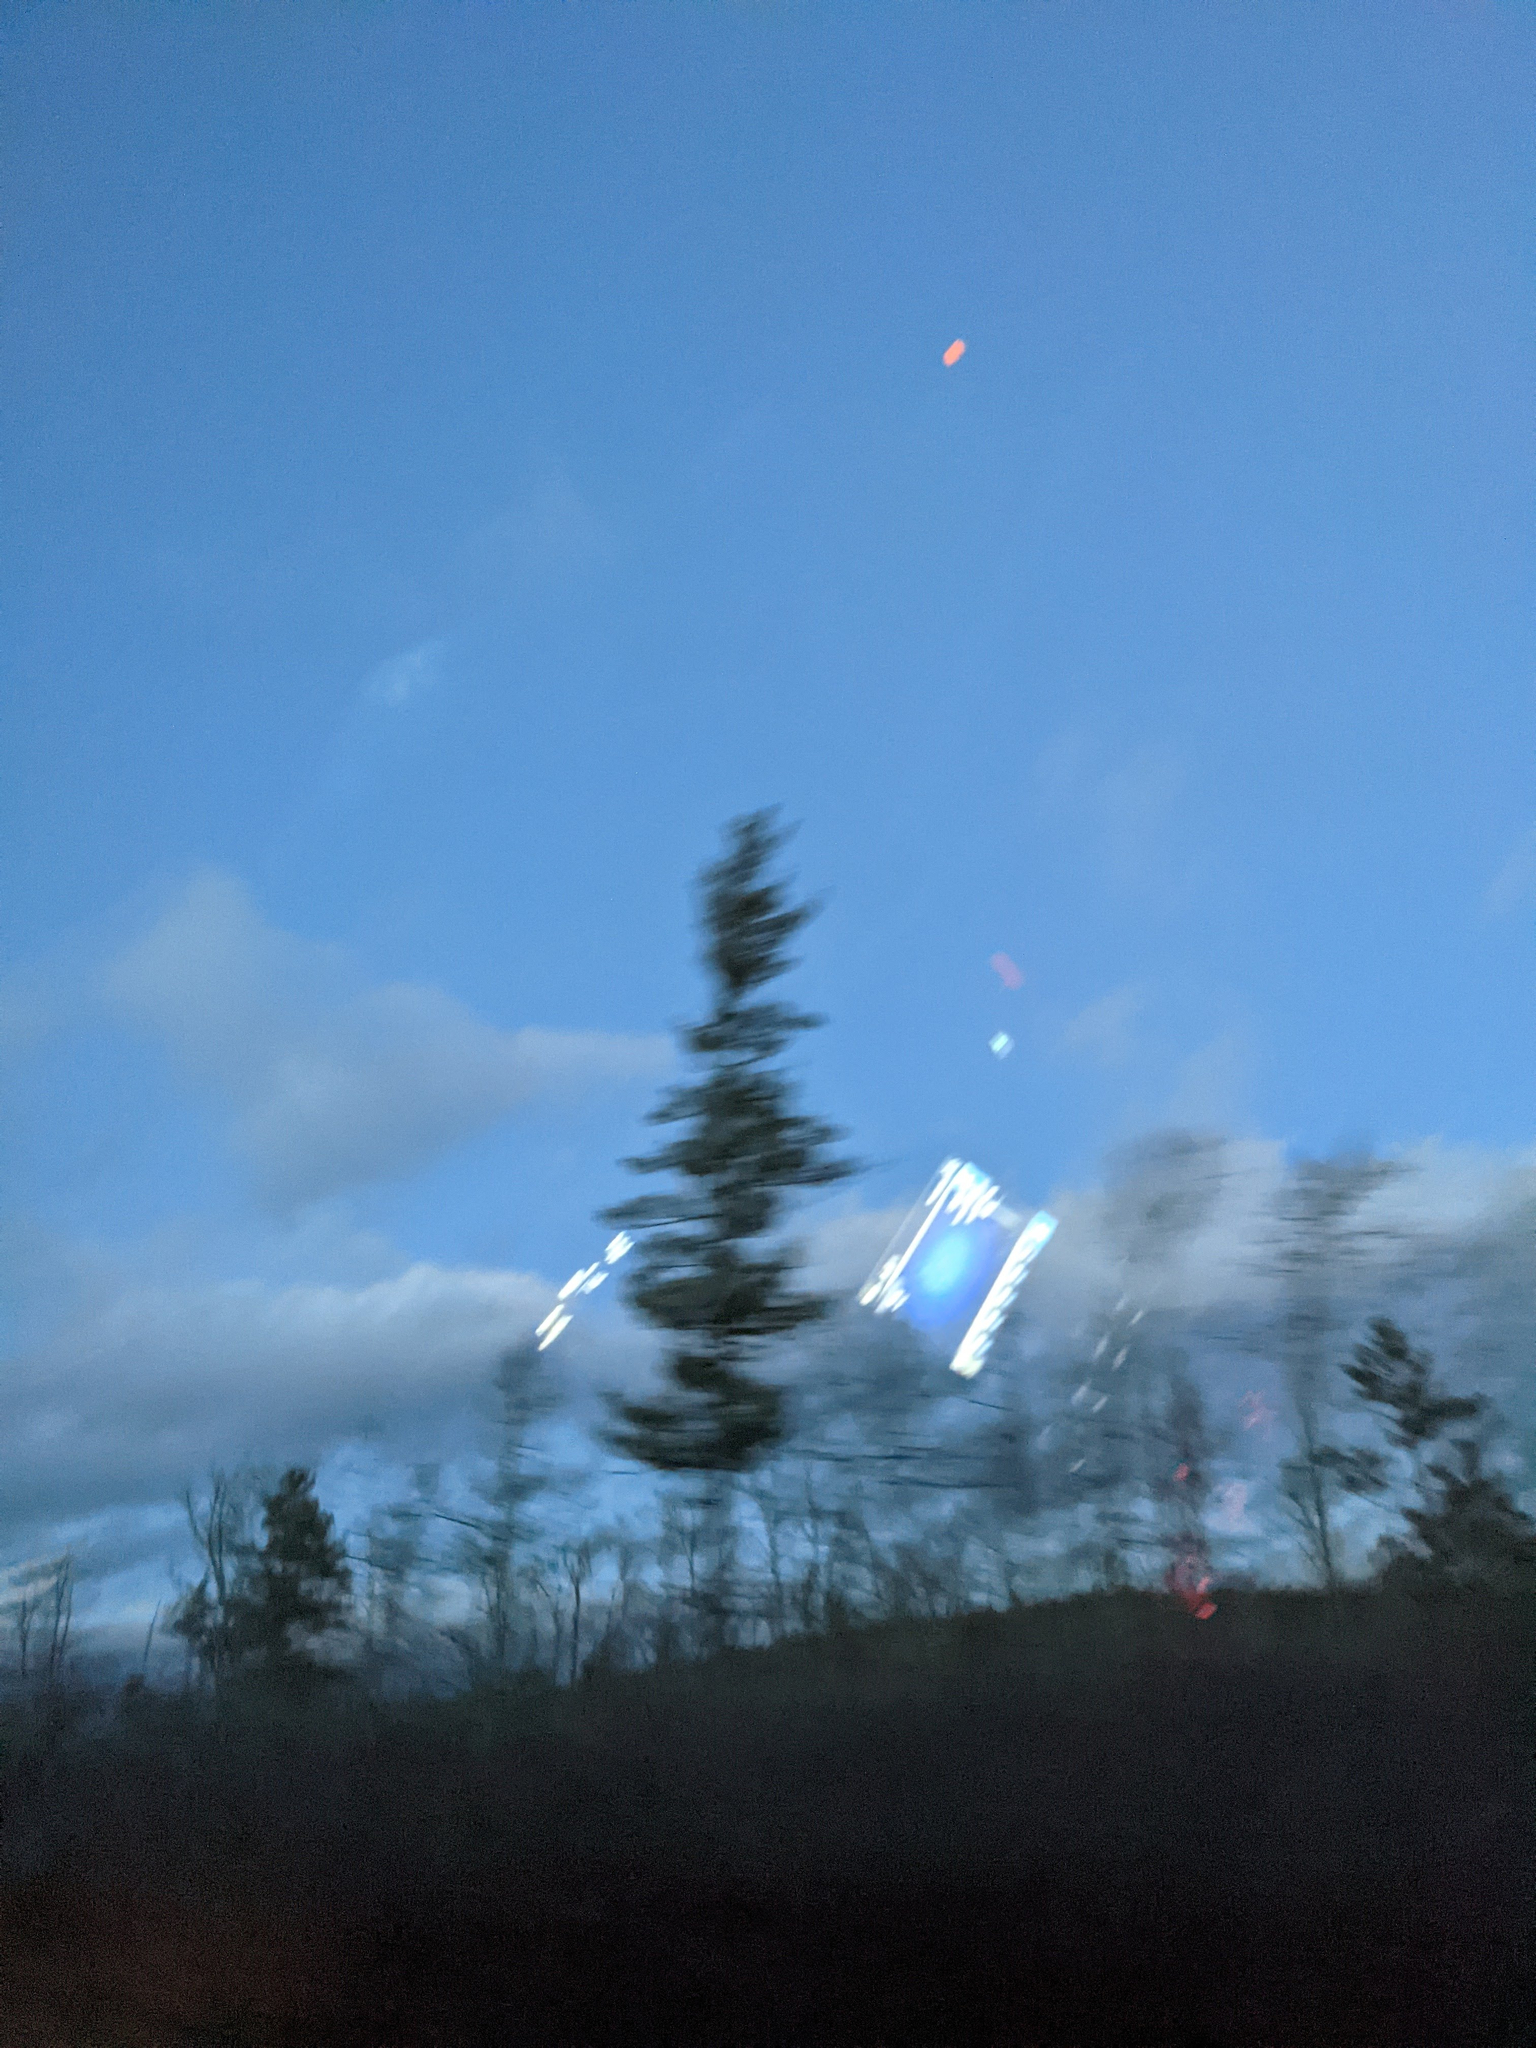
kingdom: Plantae
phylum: Tracheophyta
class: Pinopsida
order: Pinales
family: Pinaceae
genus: Pinus
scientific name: Pinus strobus
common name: Weymouth pine
